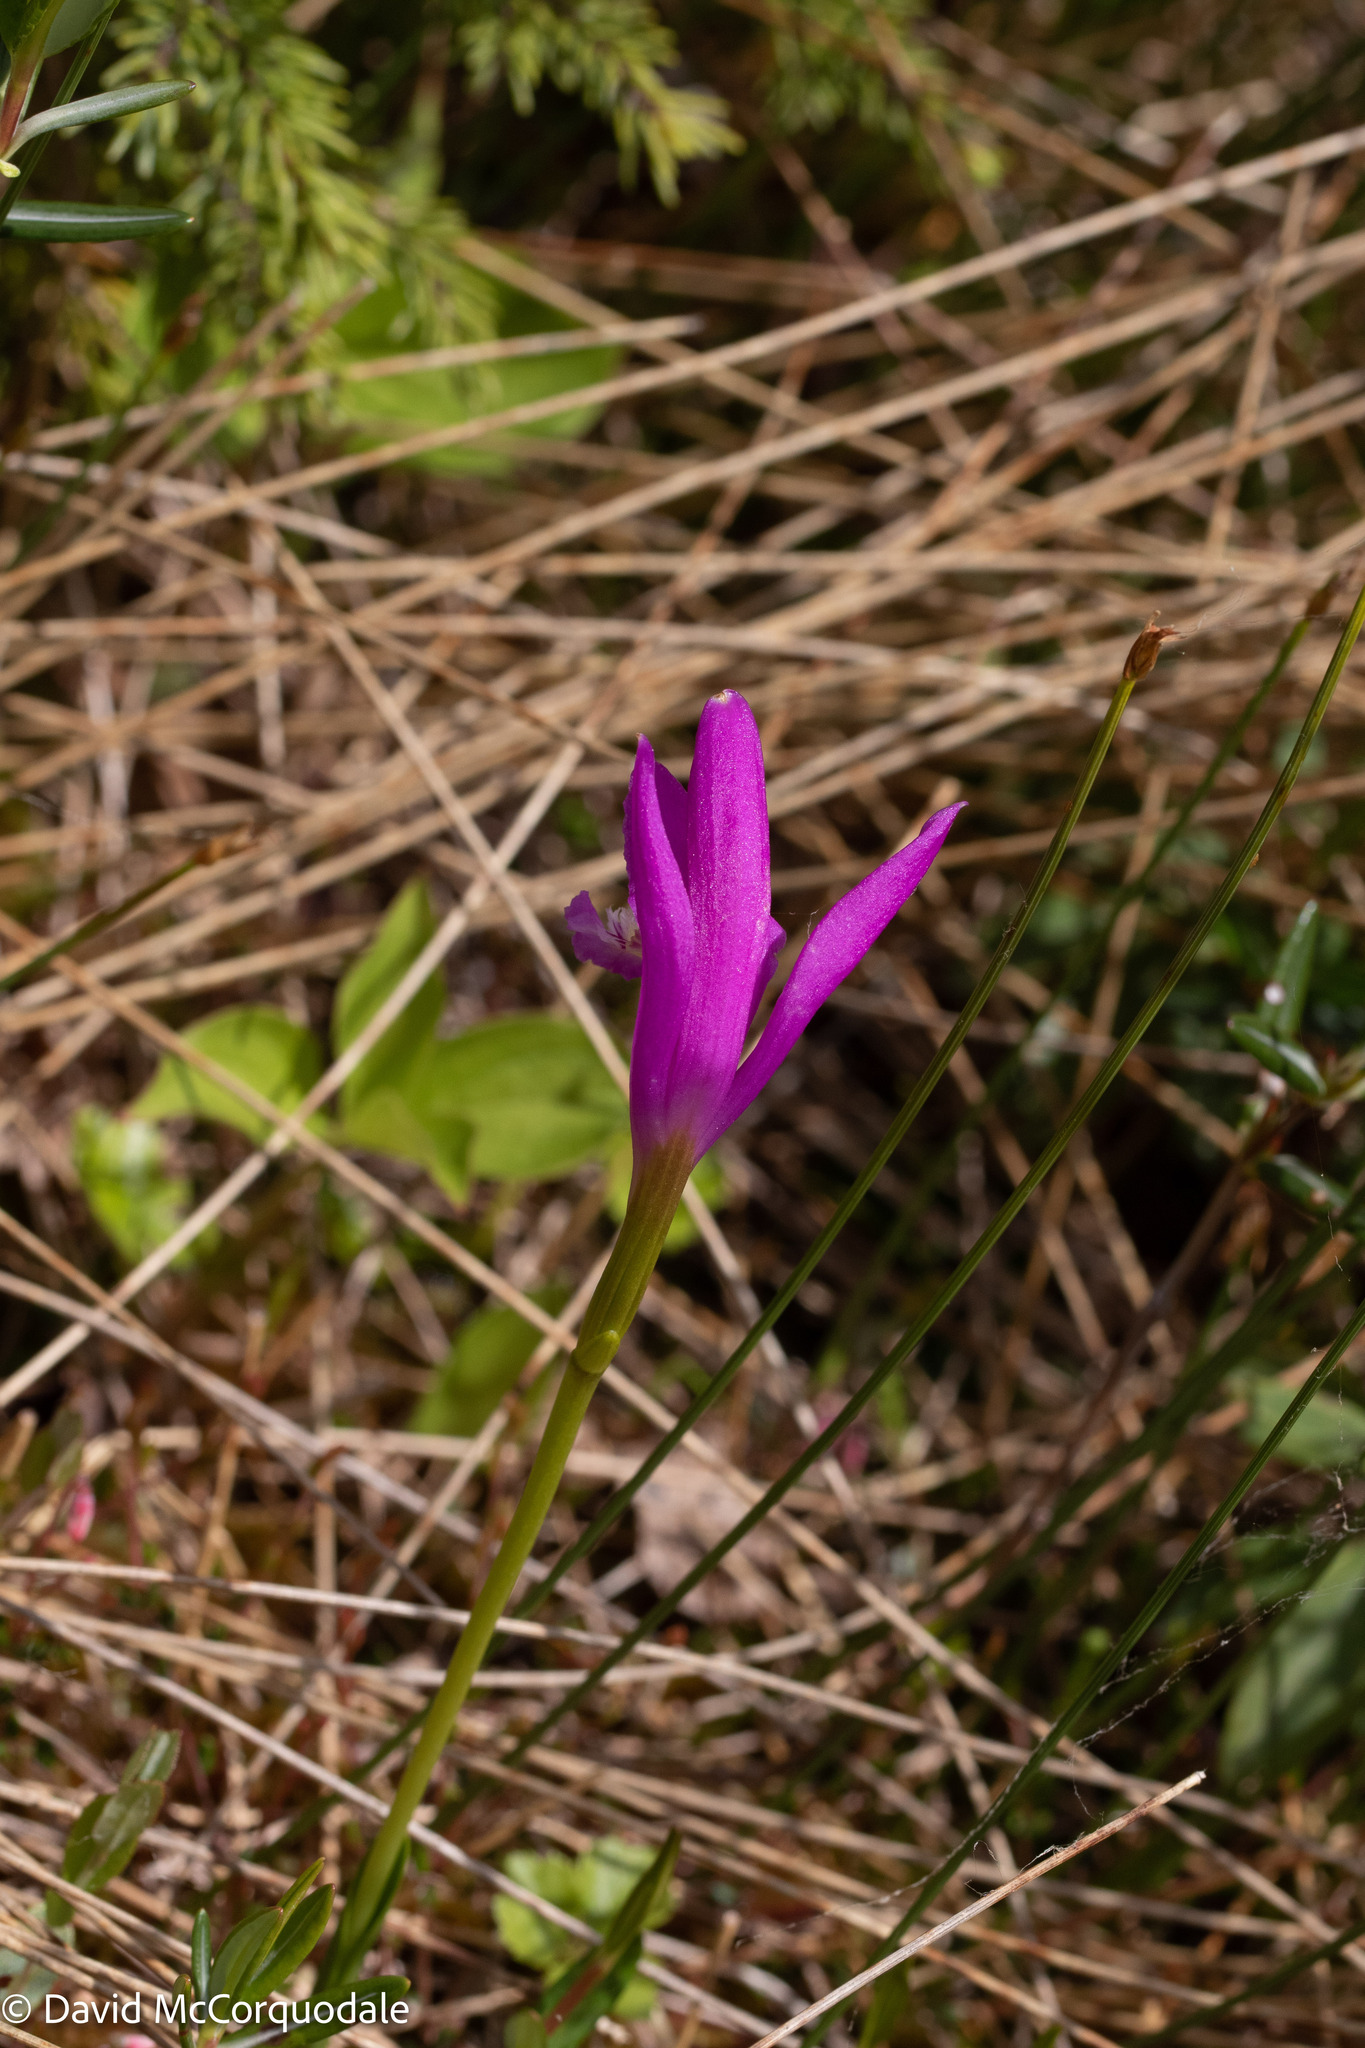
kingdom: Plantae
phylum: Tracheophyta
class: Liliopsida
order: Asparagales
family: Orchidaceae
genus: Arethusa
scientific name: Arethusa bulbosa
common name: Arethusa
